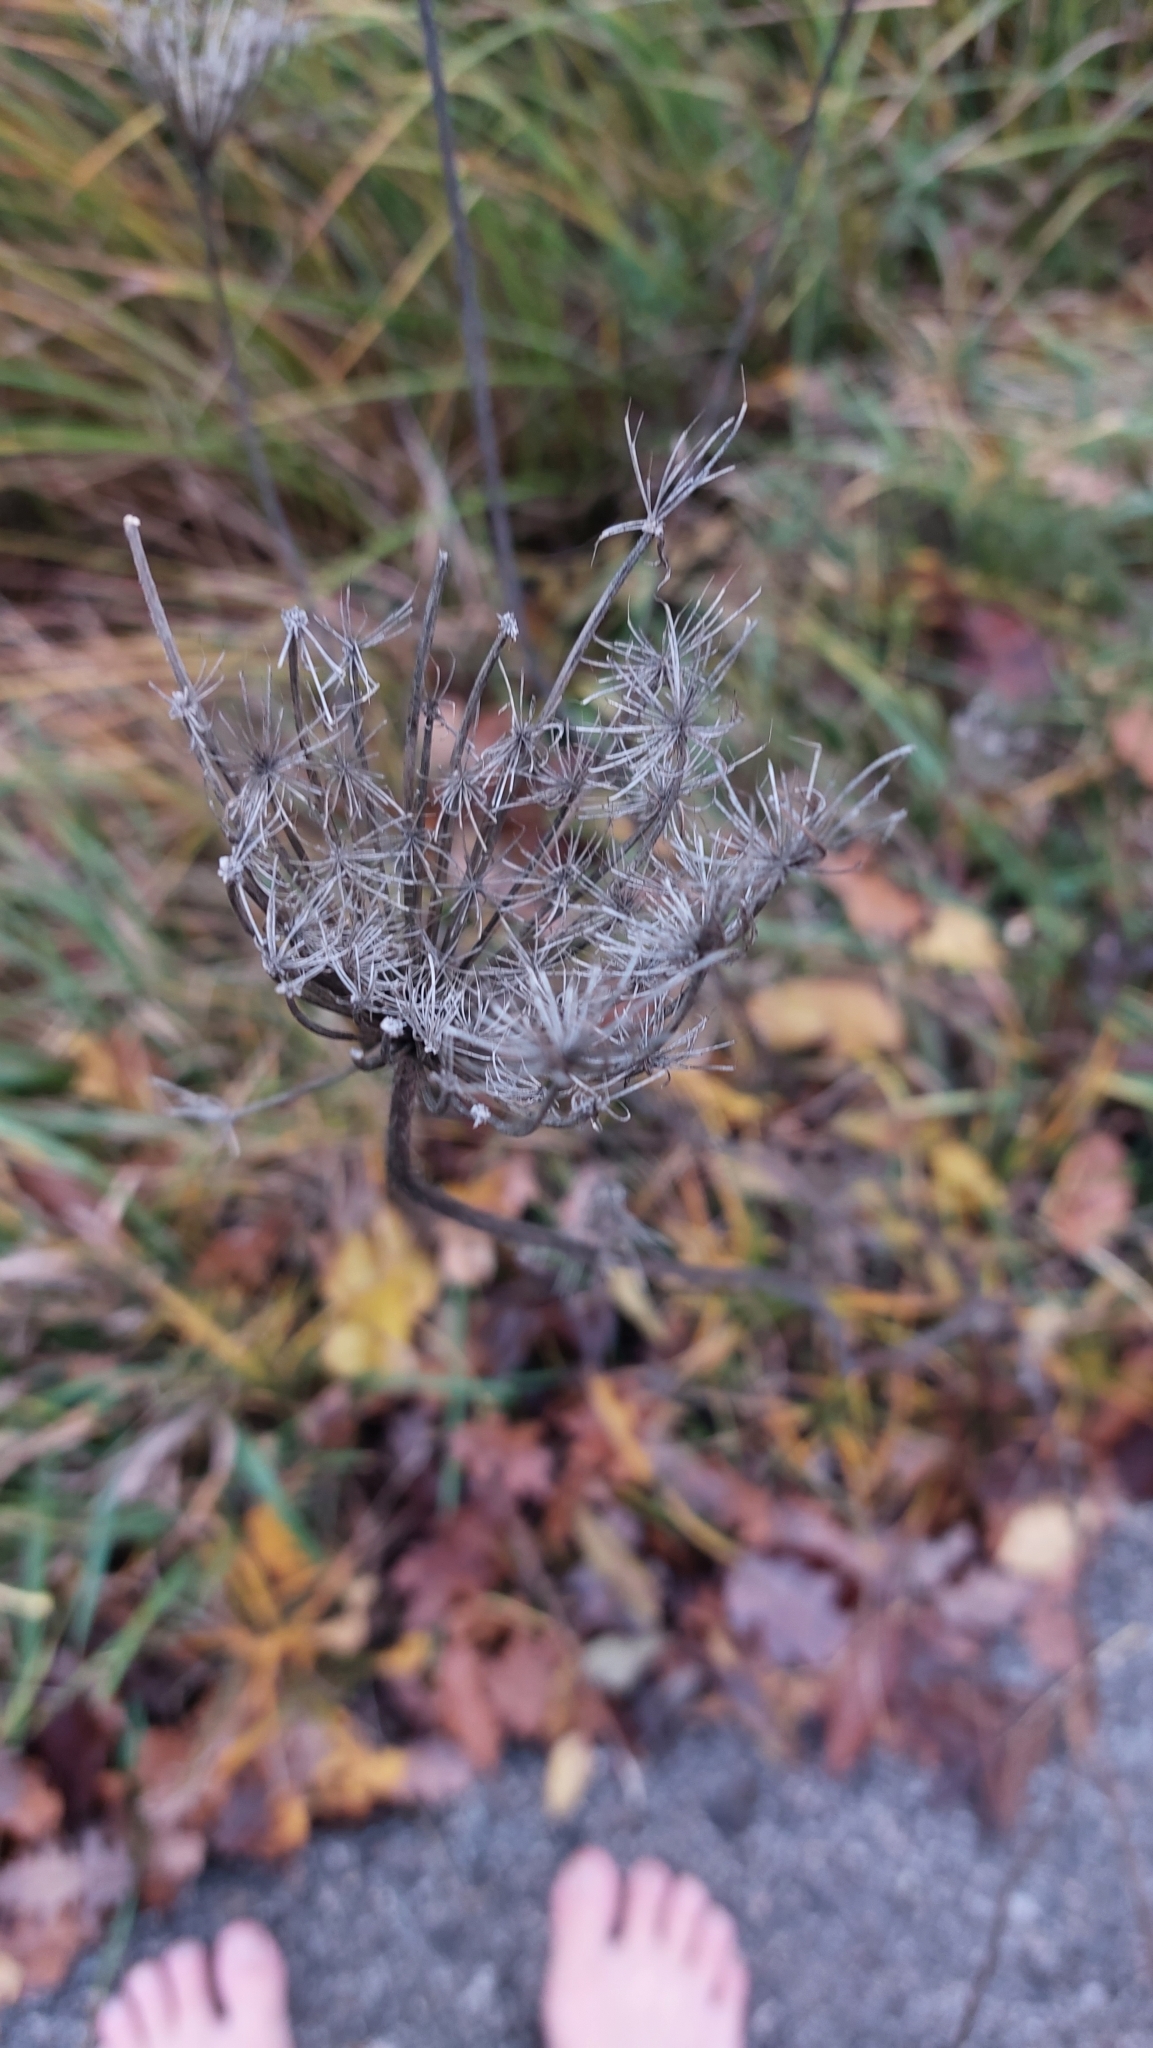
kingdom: Plantae
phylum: Tracheophyta
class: Magnoliopsida
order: Apiales
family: Apiaceae
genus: Daucus
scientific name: Daucus carota
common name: Wild carrot
